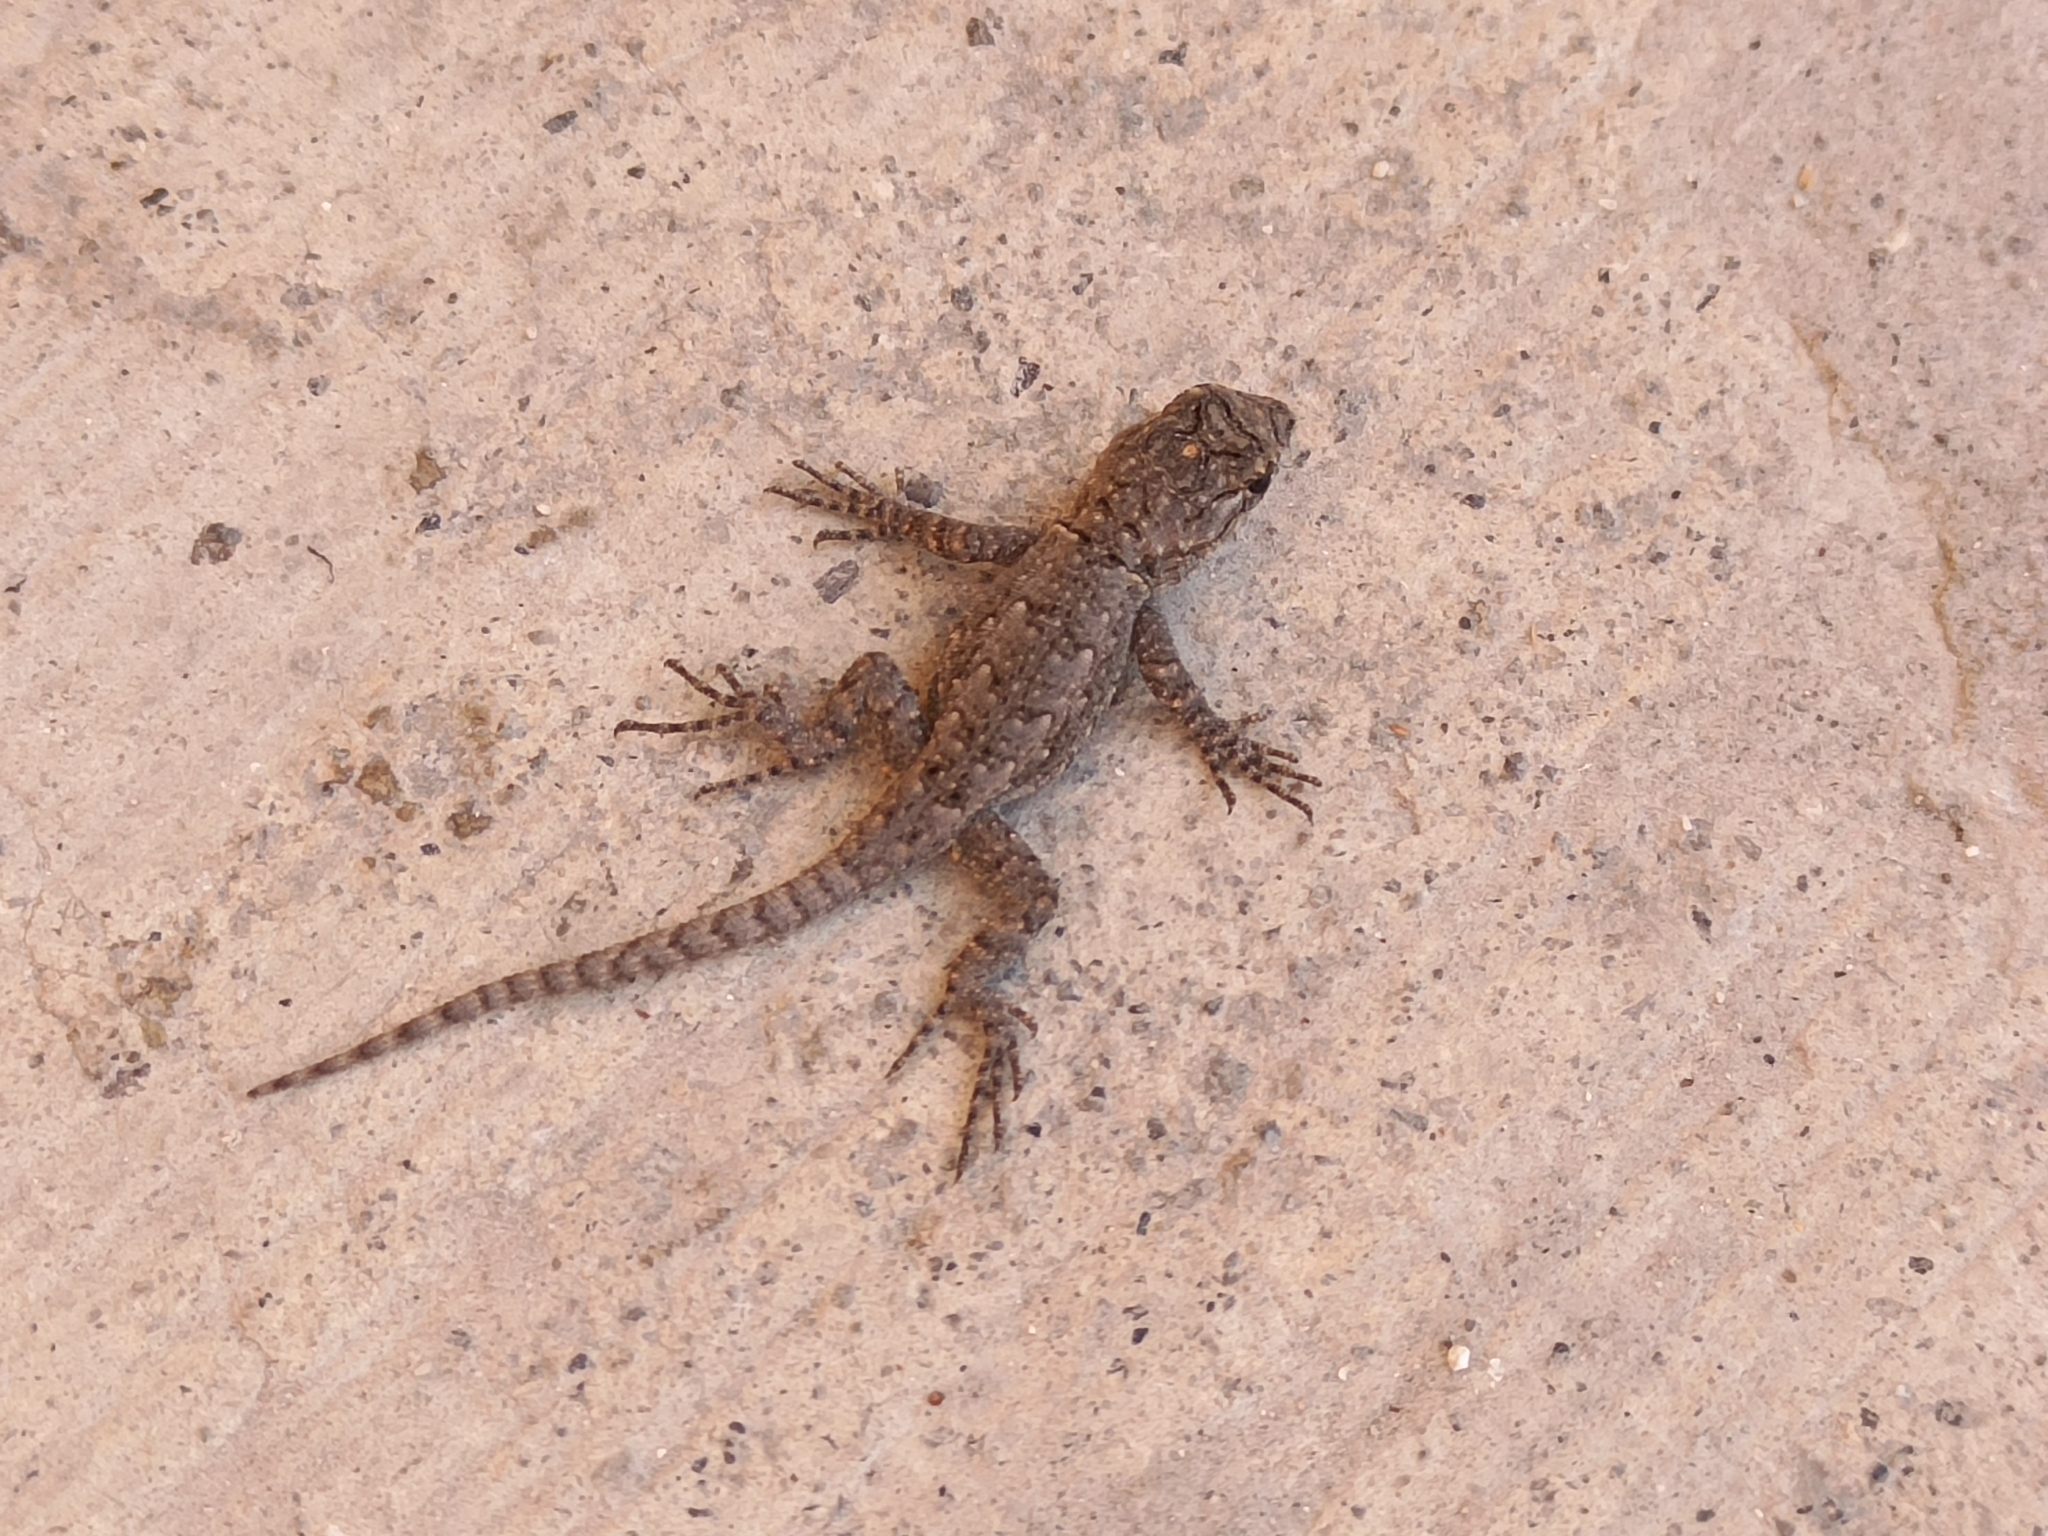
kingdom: Animalia
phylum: Chordata
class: Squamata
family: Phrynosomatidae
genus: Sceloporus
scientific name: Sceloporus grammicus
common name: Mesquite lizard
